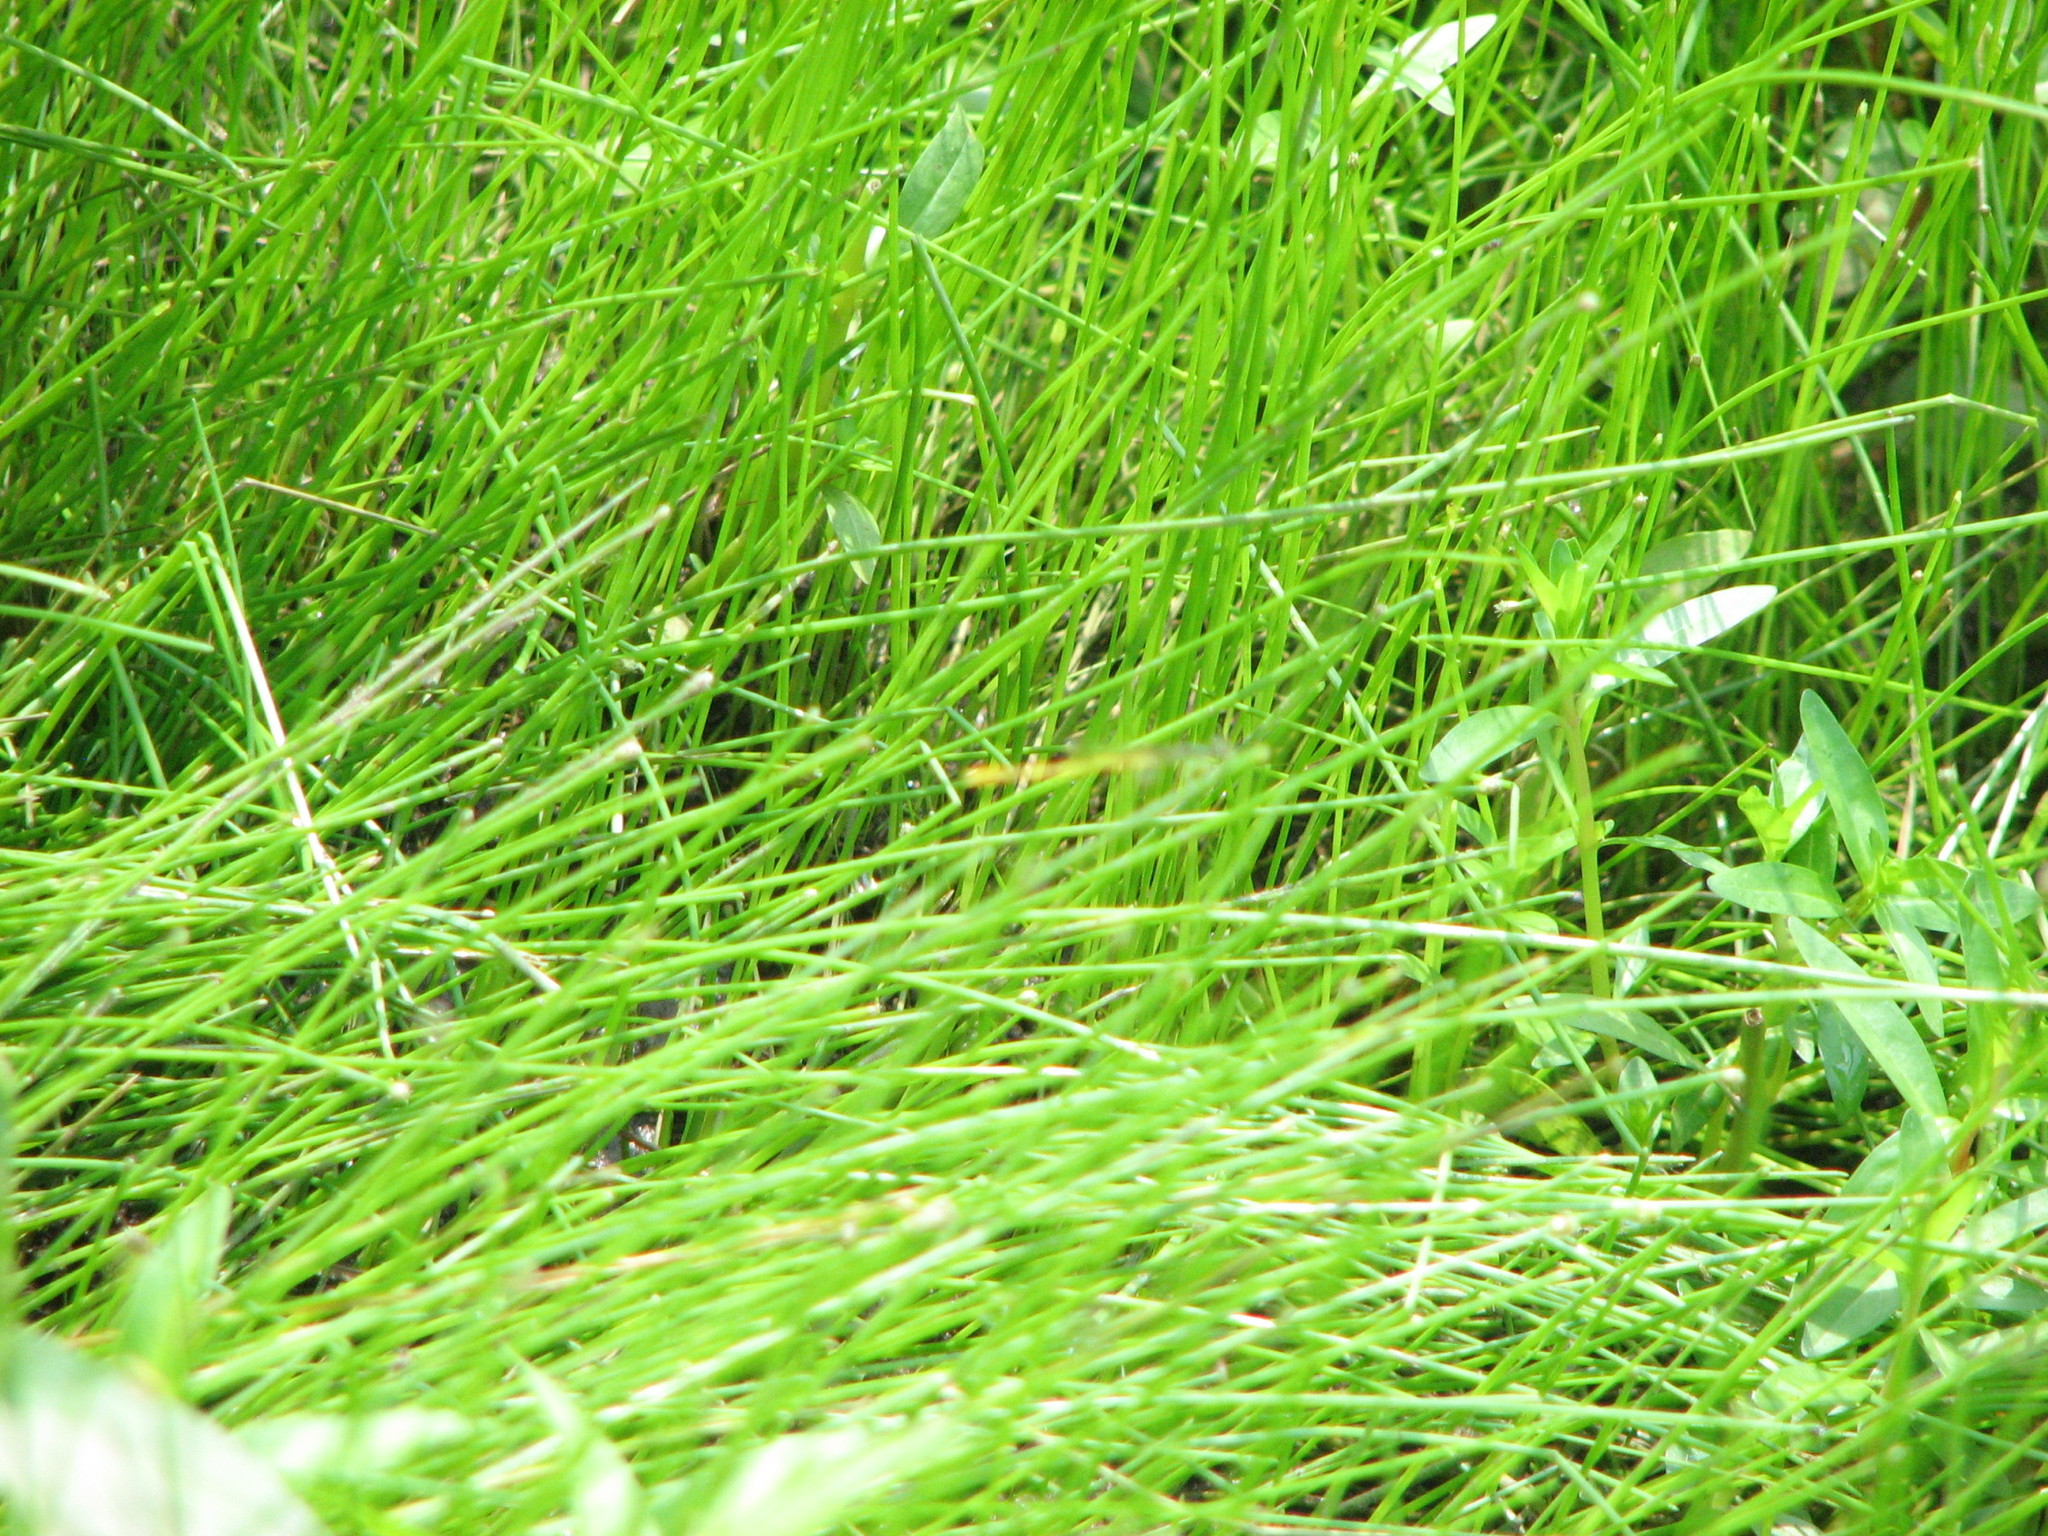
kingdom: Animalia
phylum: Arthropoda
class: Insecta
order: Odonata
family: Coenagrionidae
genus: Ischnura
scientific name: Ischnura hastata
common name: Citrine forktail
